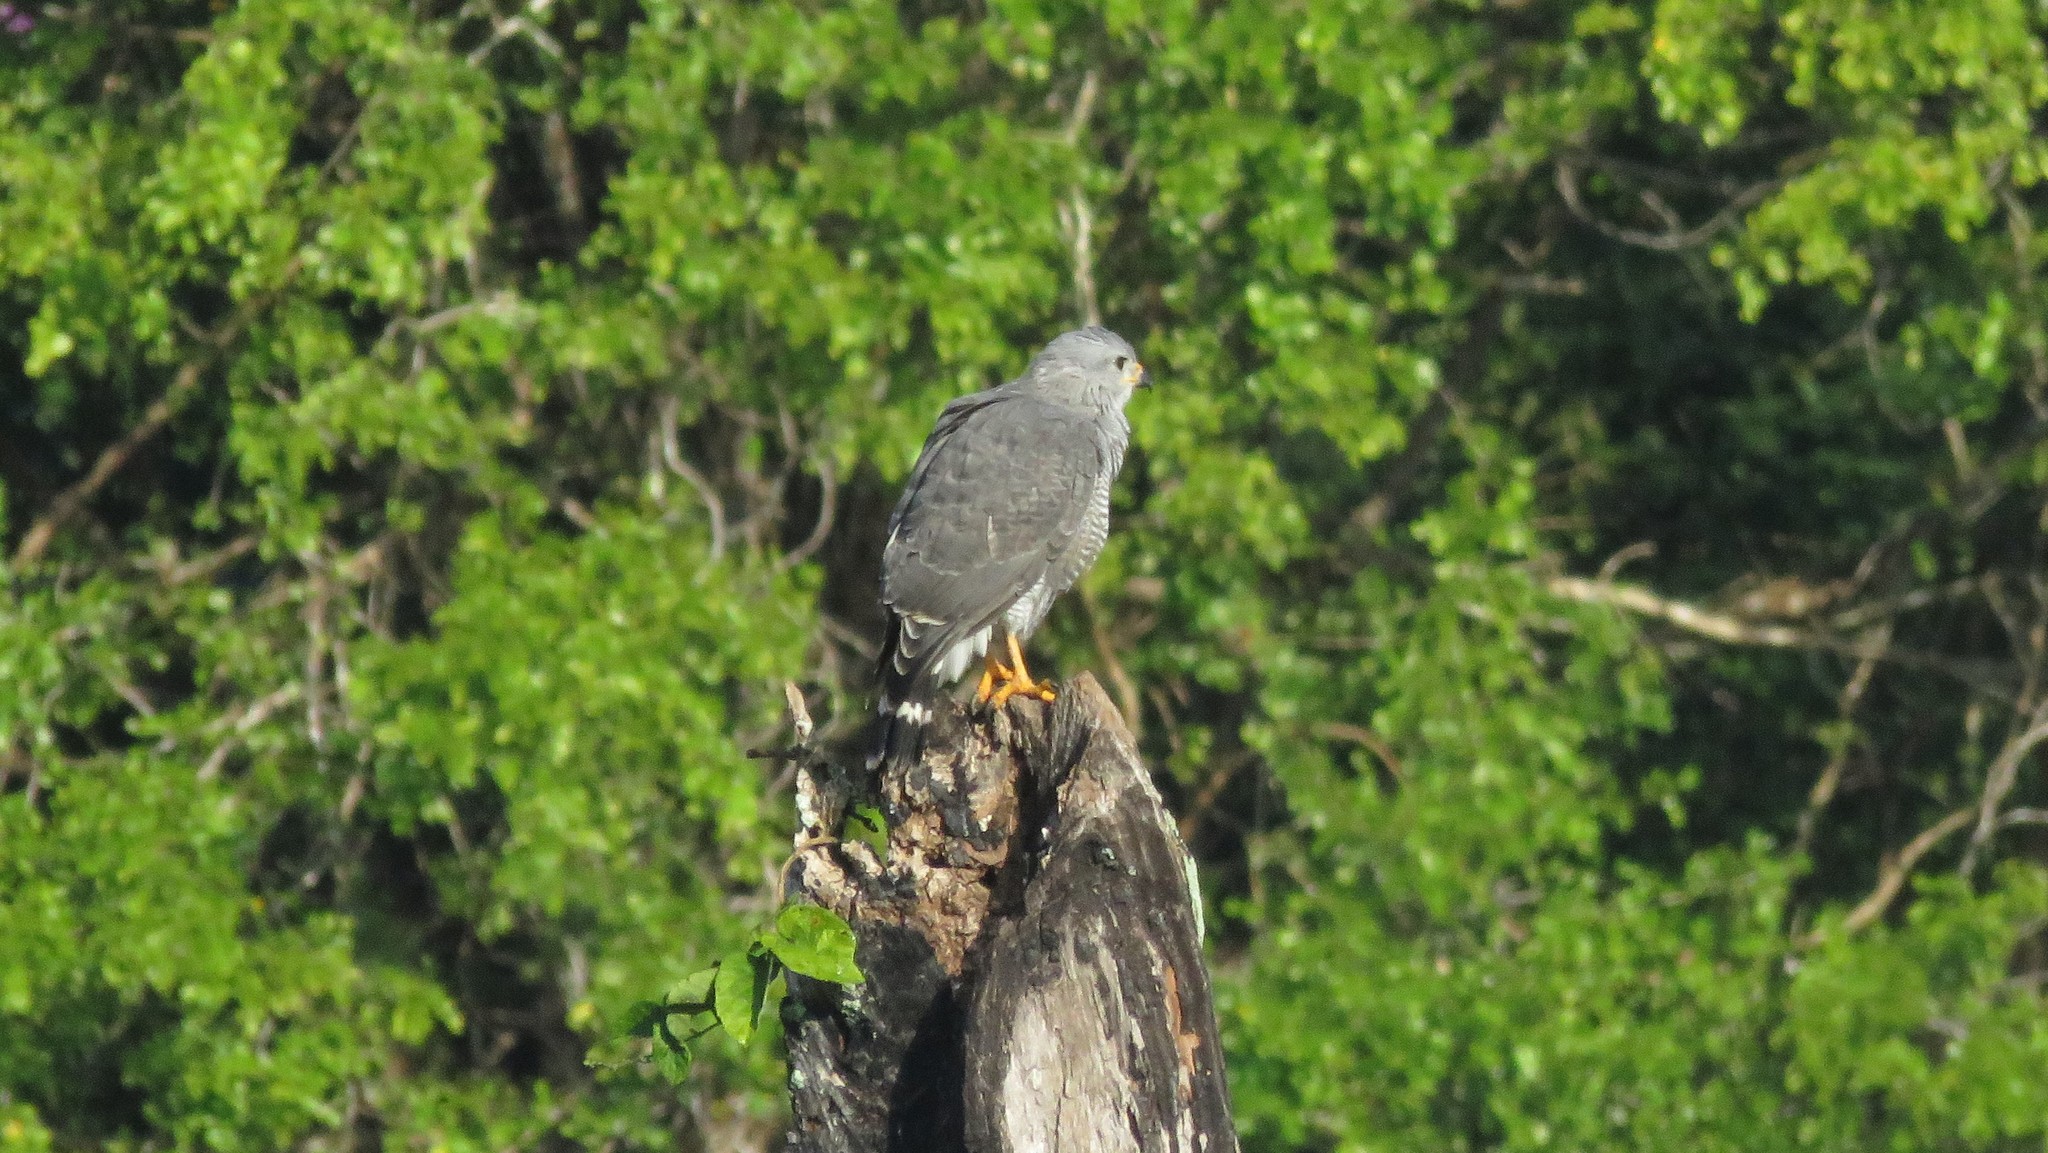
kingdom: Animalia
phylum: Chordata
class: Aves
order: Accipitriformes
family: Accipitridae
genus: Buteo
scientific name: Buteo nitidus
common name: Grey-lined hawk
